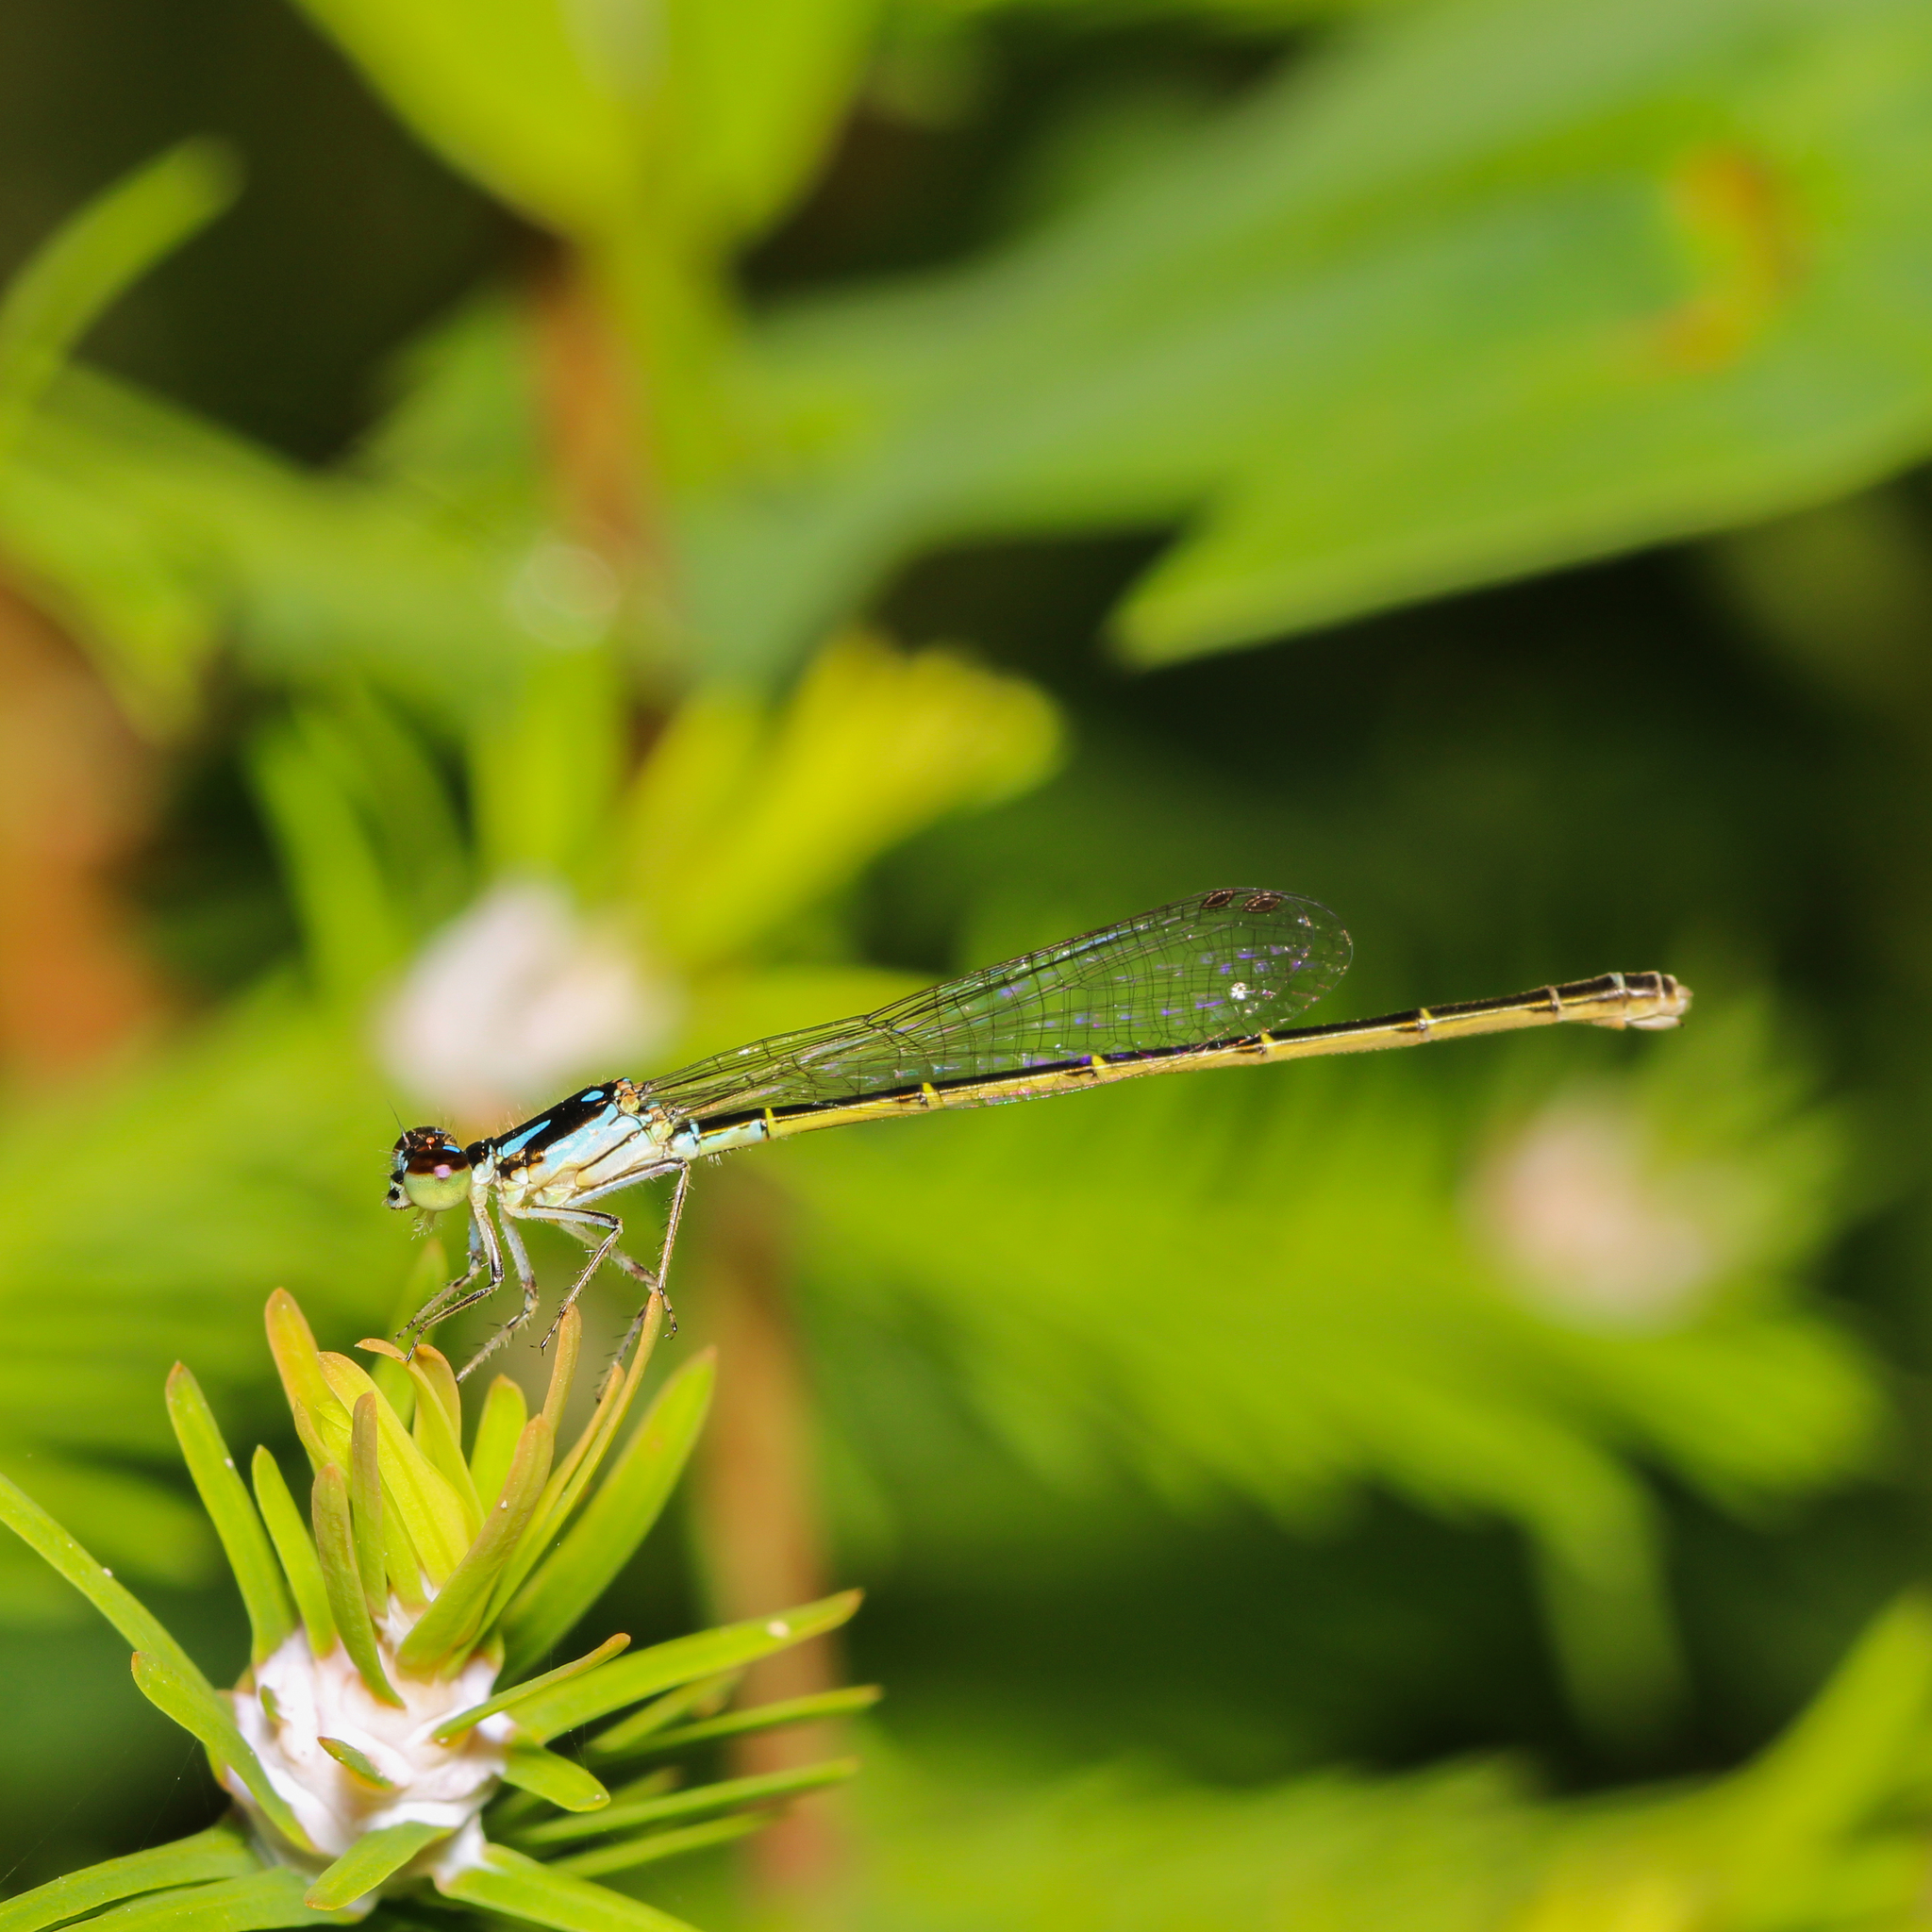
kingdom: Animalia
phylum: Arthropoda
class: Insecta
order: Odonata
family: Coenagrionidae
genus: Ischnura
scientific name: Ischnura posita
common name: Fragile forktail
